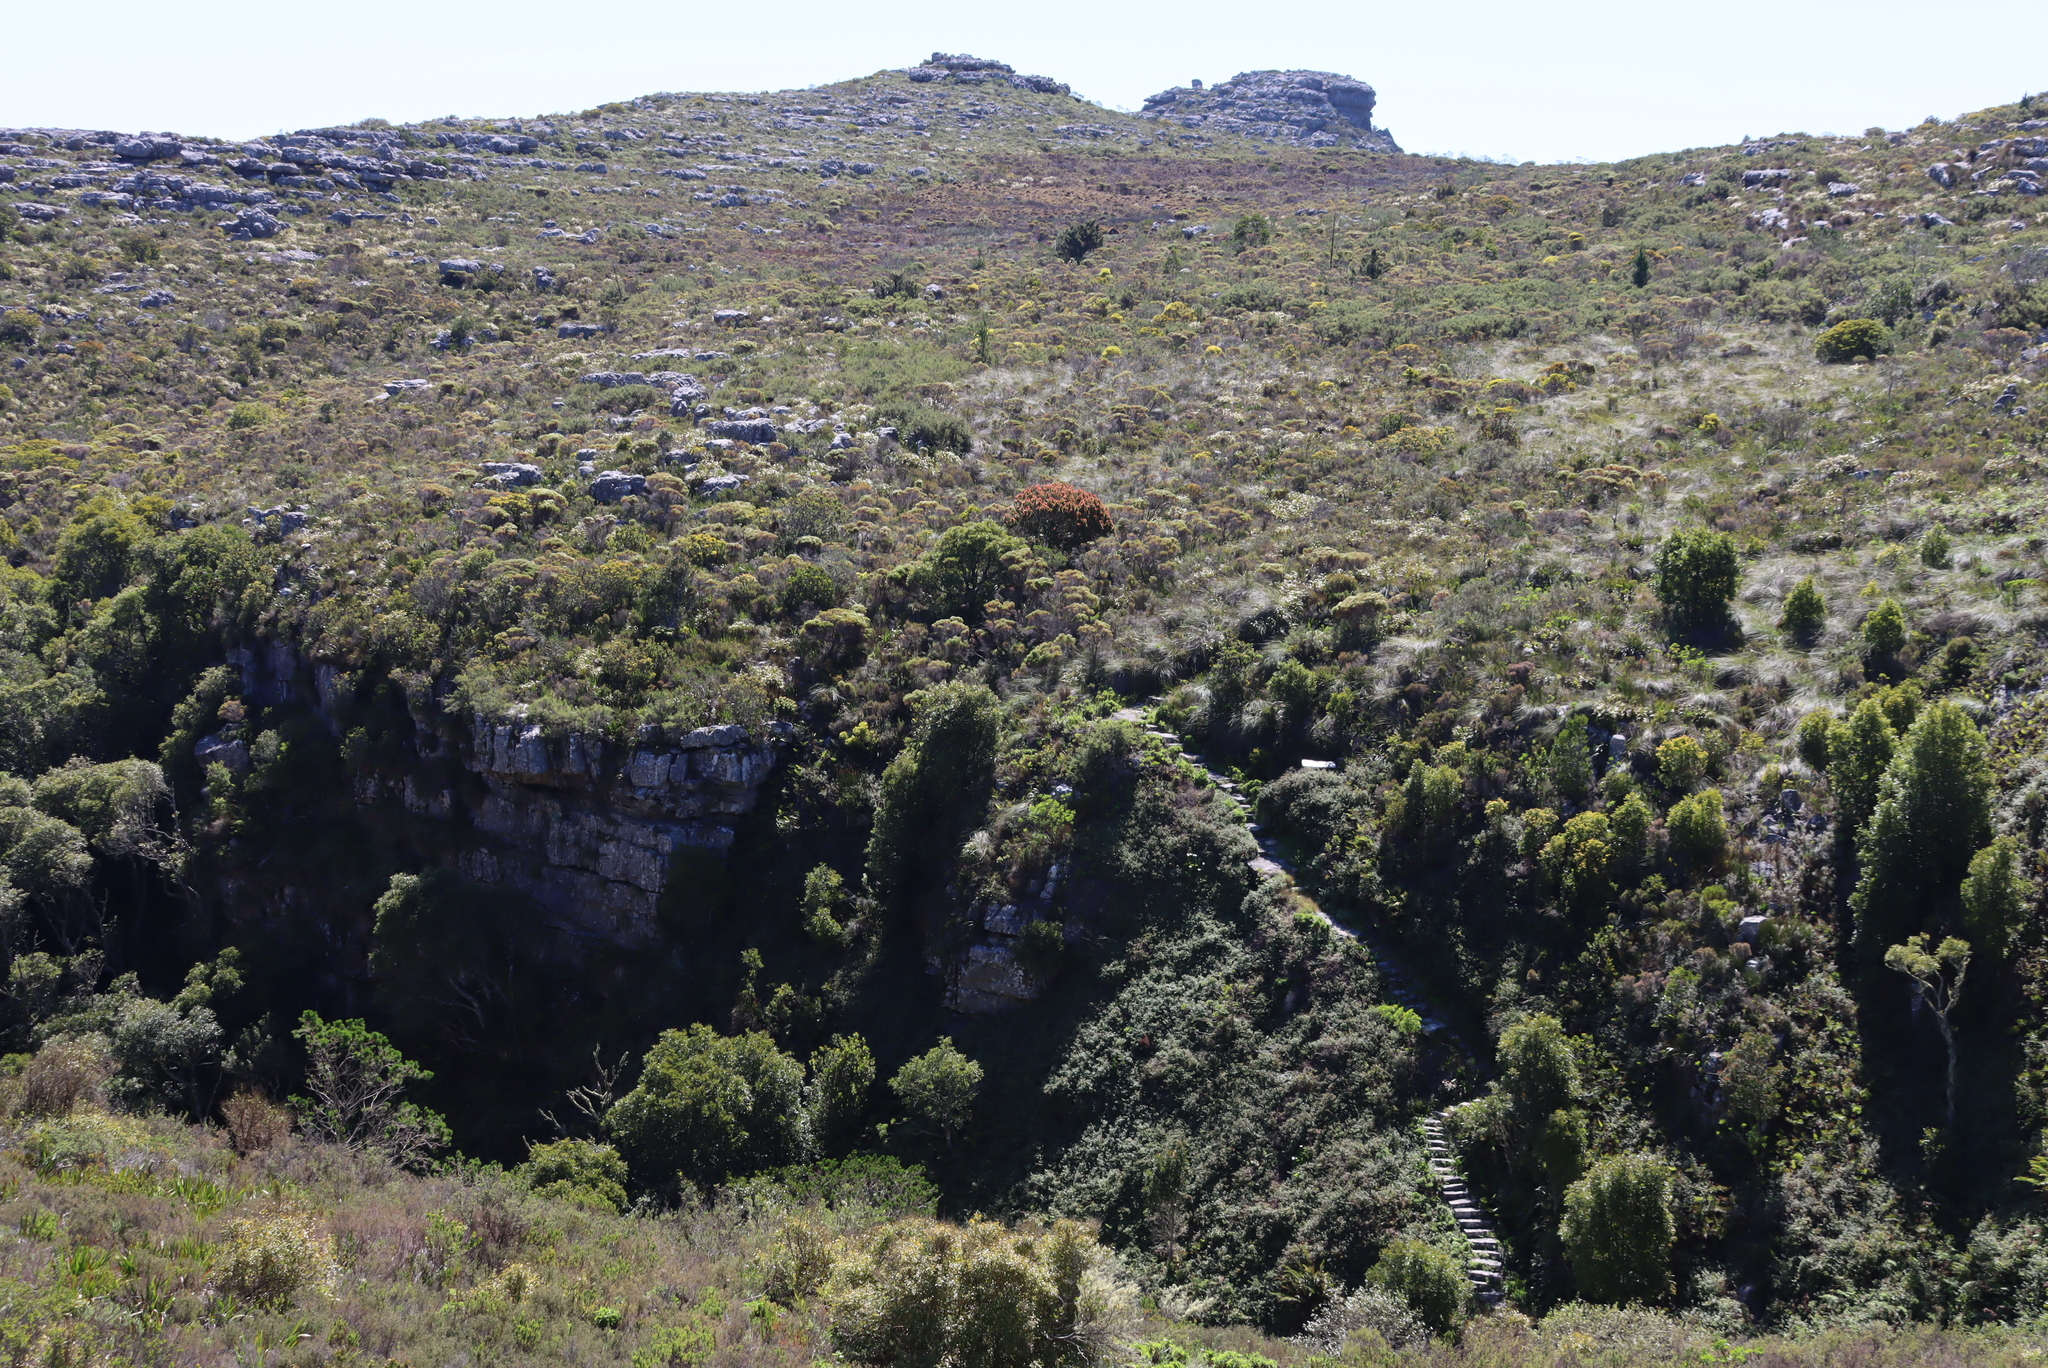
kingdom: Plantae
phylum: Tracheophyta
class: Magnoliopsida
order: Proteales
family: Proteaceae
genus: Mimetes
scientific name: Mimetes fimbriifolius
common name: Fringed bottlebrush
